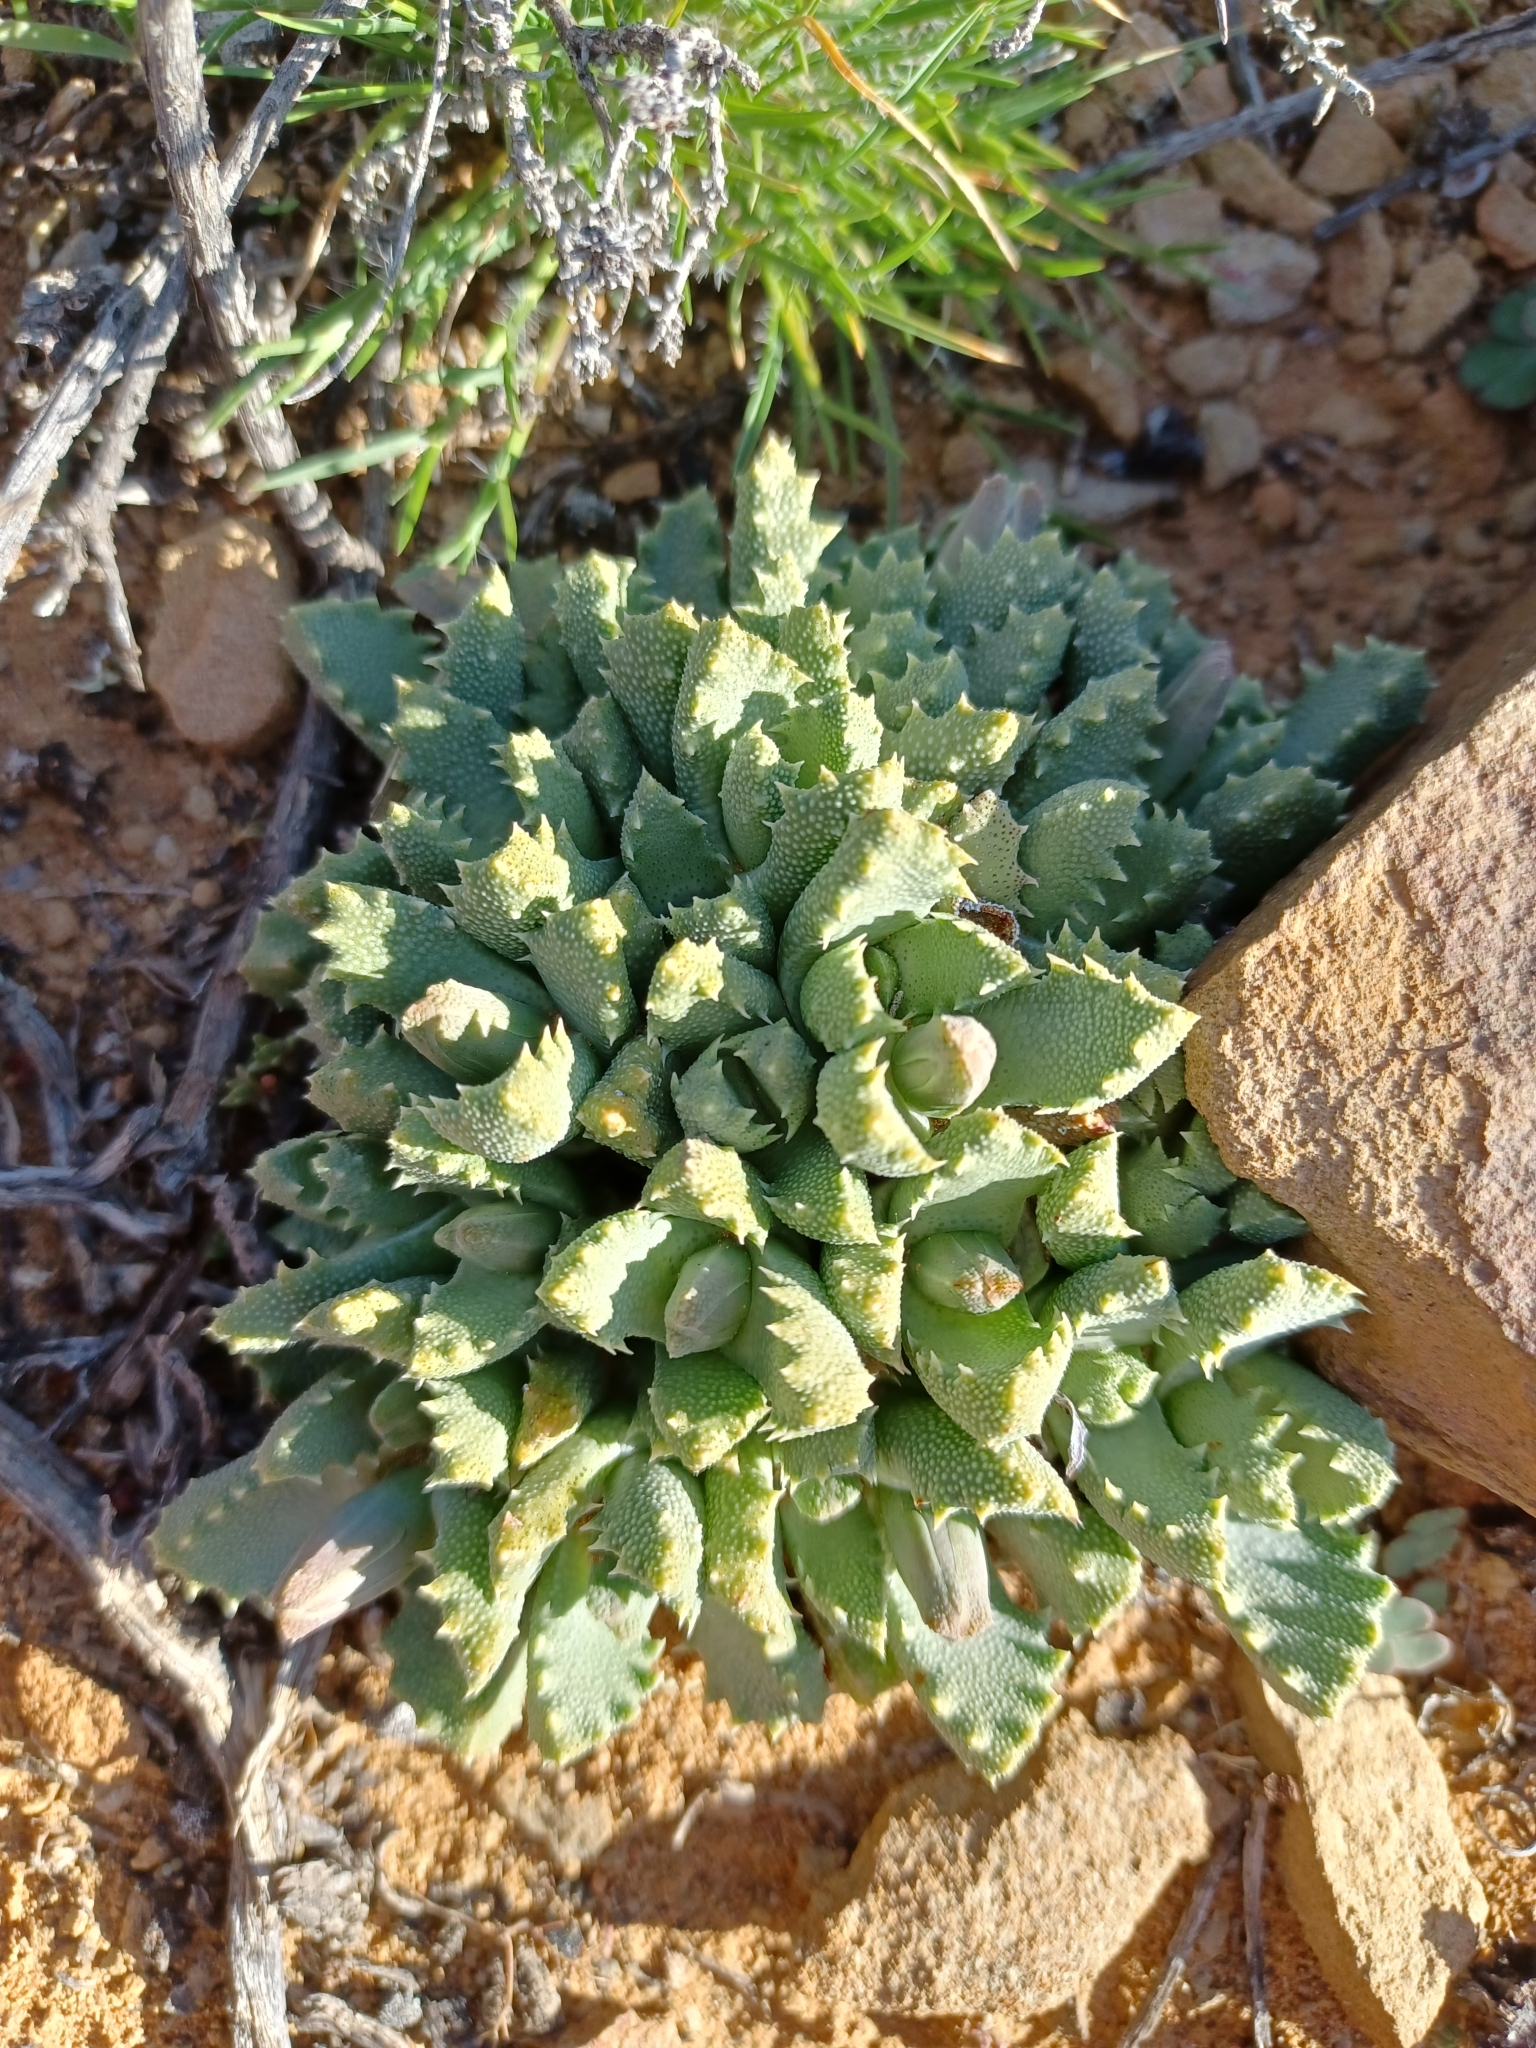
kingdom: Plantae
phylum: Tracheophyta
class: Magnoliopsida
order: Caryophyllales
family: Aizoaceae
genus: Stomatium
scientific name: Stomatium villetii
